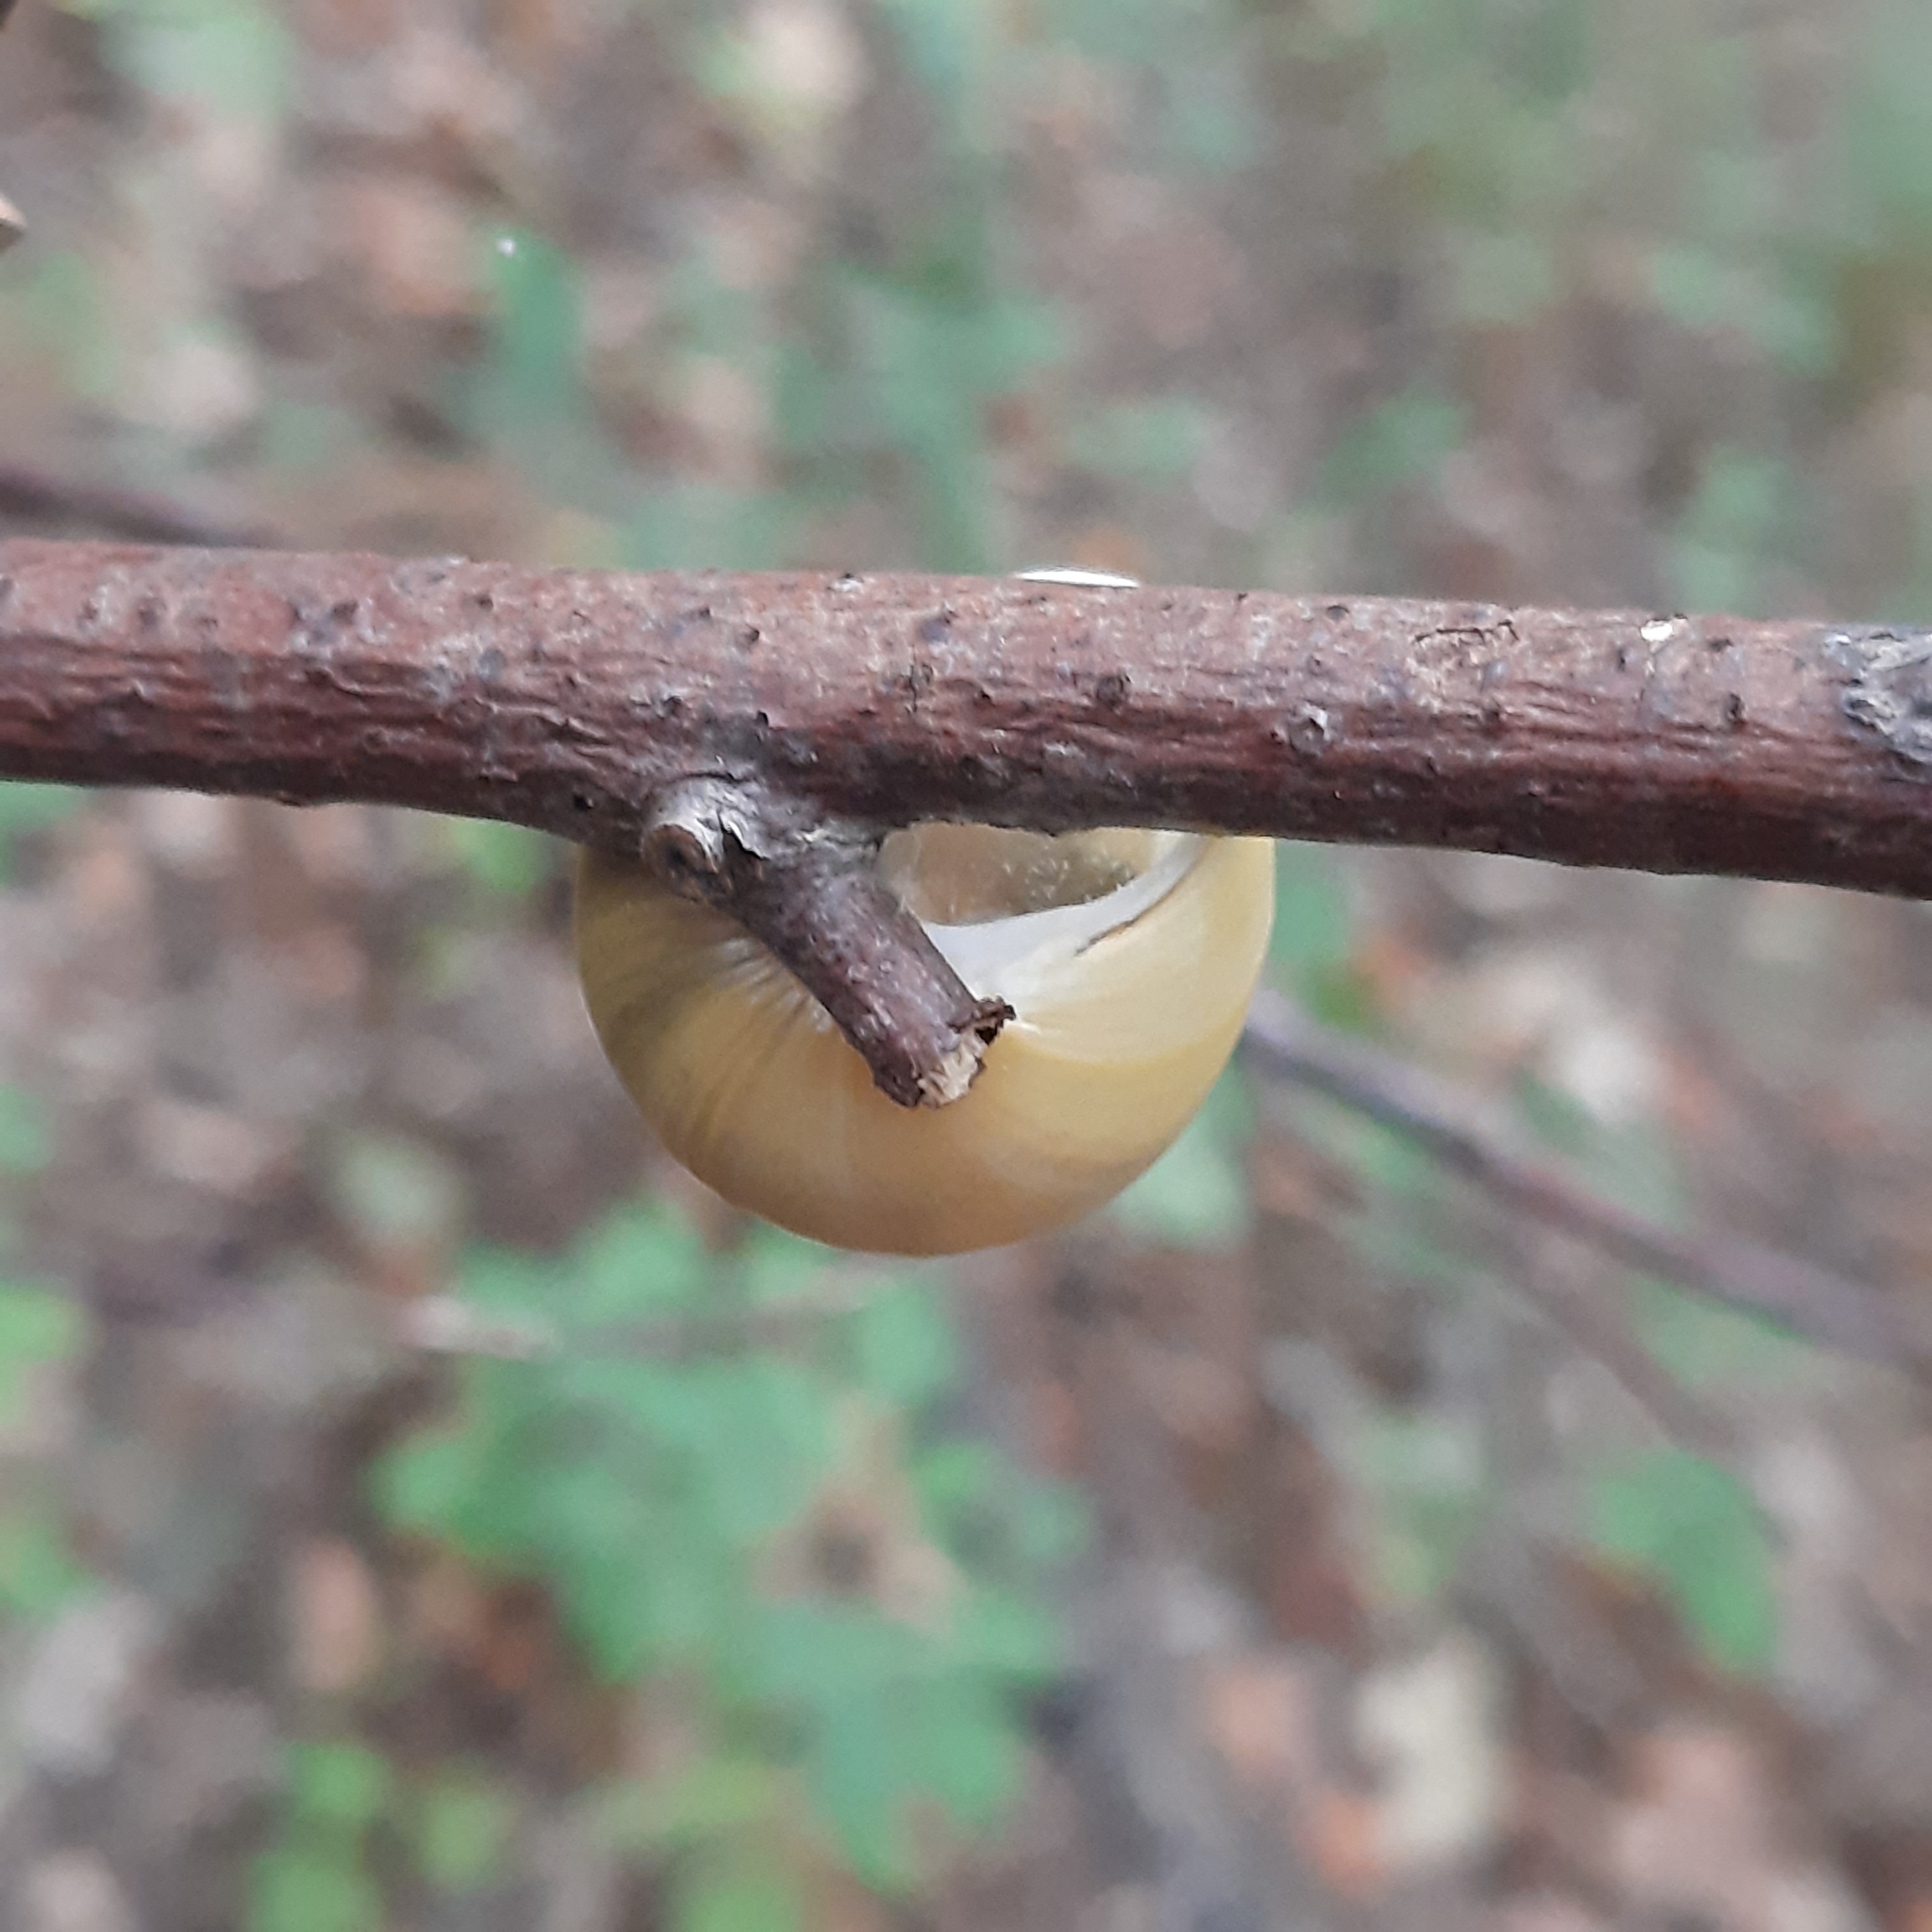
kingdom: Animalia
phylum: Mollusca
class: Gastropoda
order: Stylommatophora
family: Helicidae
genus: Cepaea
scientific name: Cepaea hortensis
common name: White-lip gardensnail
